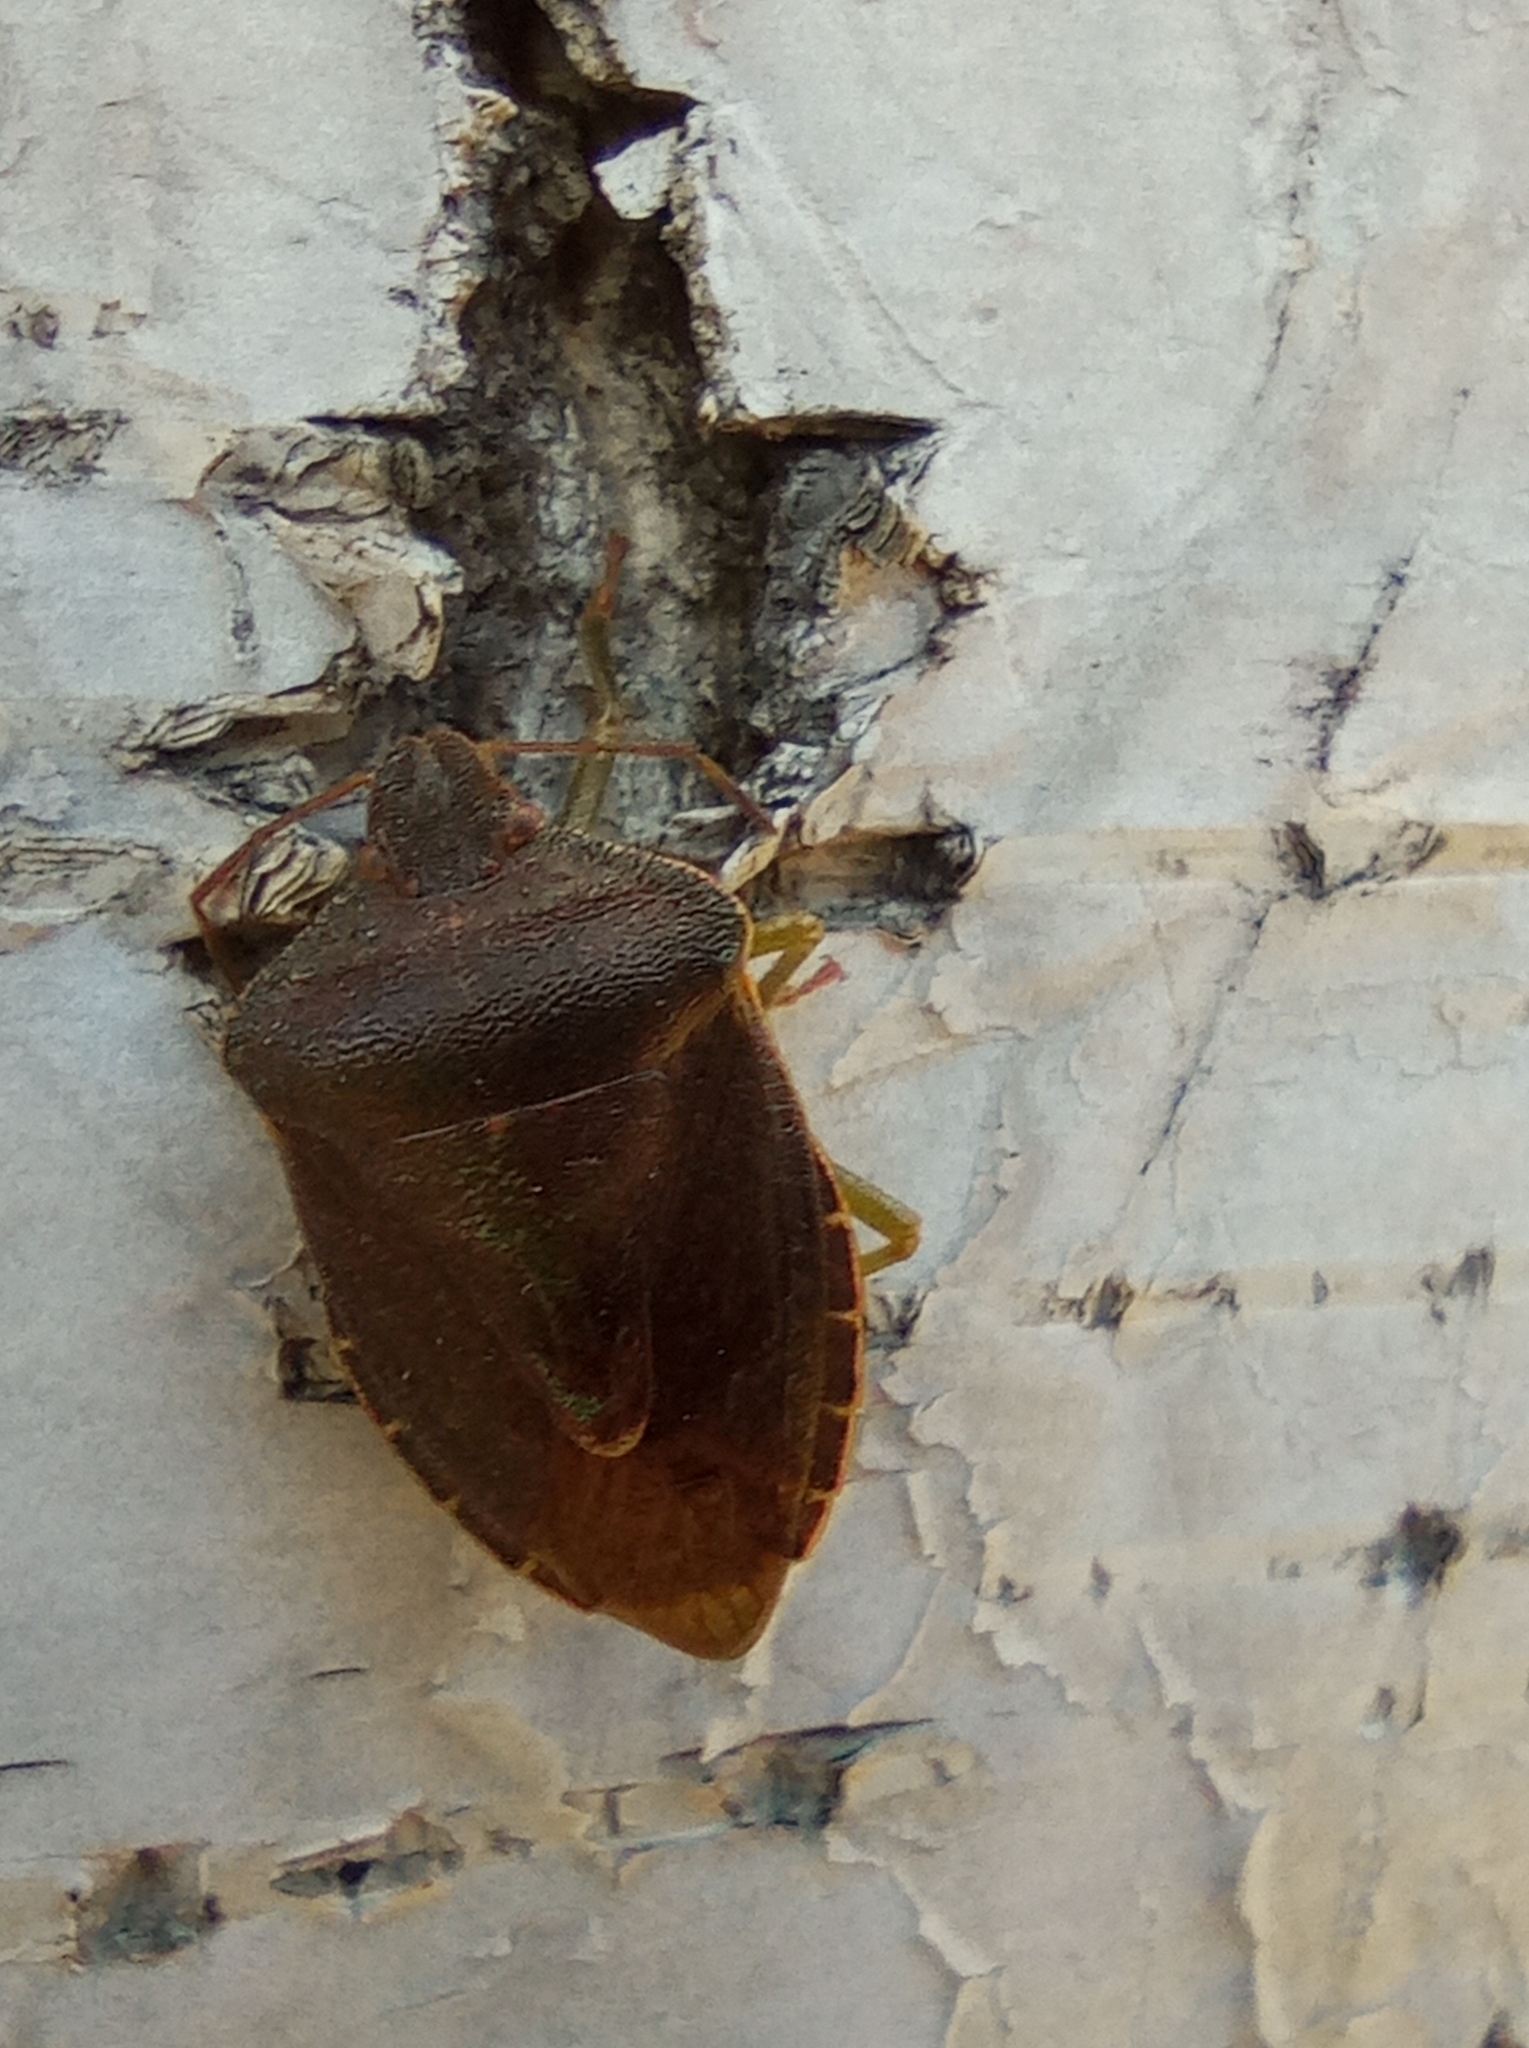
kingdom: Animalia
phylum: Arthropoda
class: Insecta
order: Hemiptera
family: Pentatomidae
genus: Palomena
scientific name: Palomena prasina
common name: Green shieldbug
